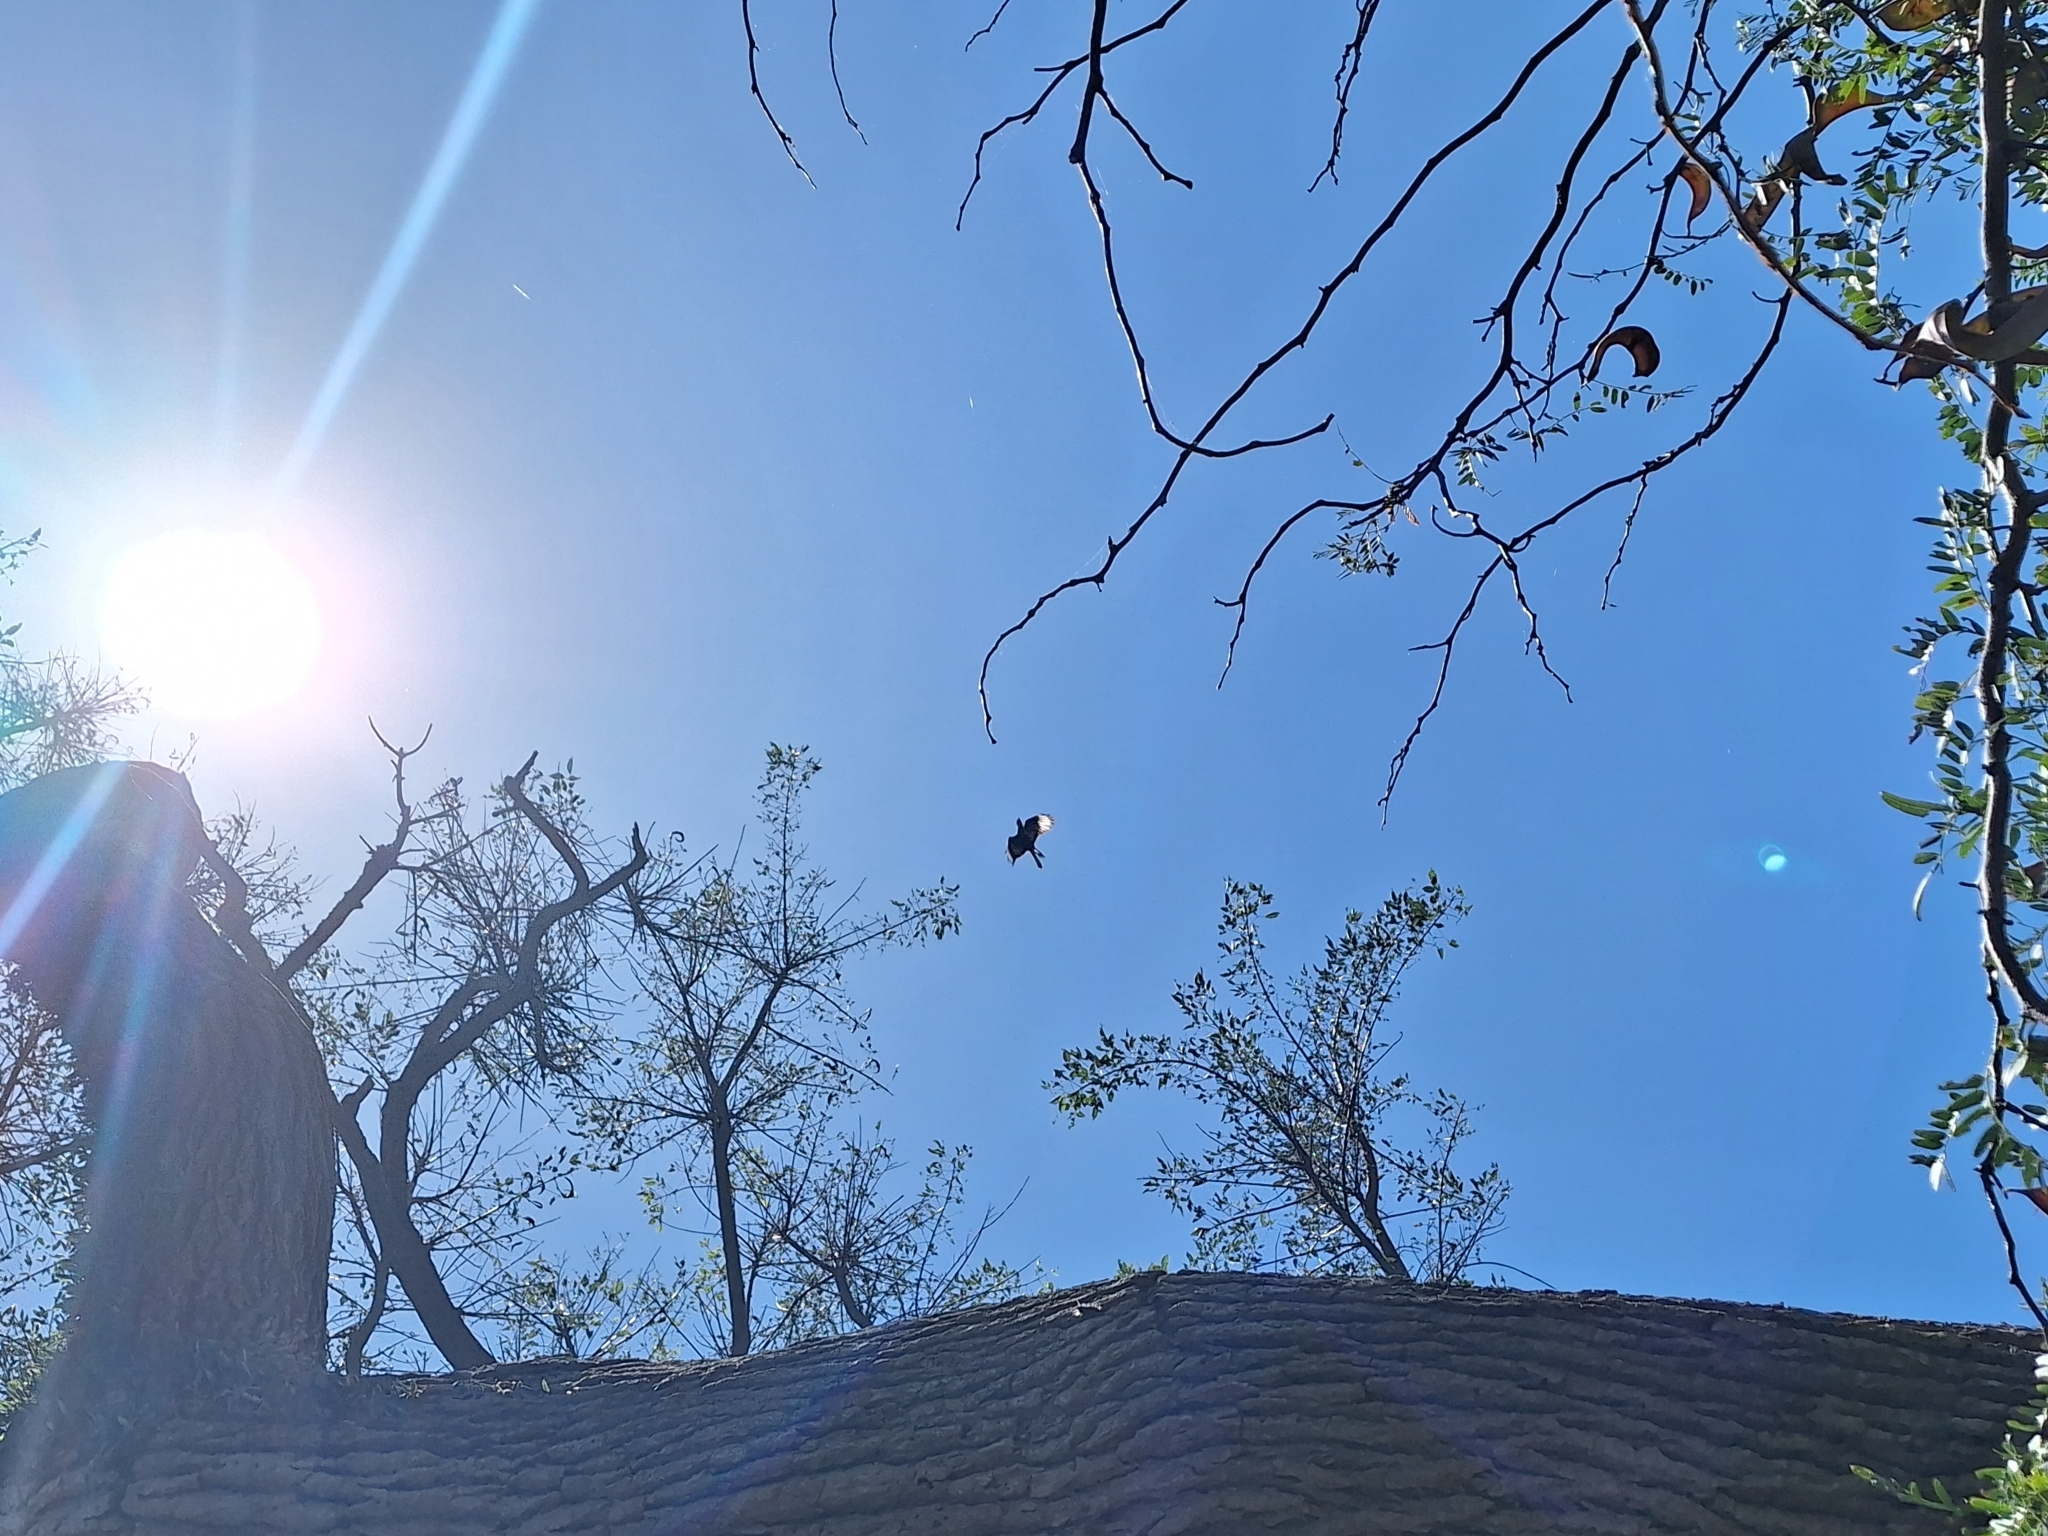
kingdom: Animalia
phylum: Chordata
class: Aves
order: Falconiformes
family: Falconidae
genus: Caracara
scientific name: Caracara plancus
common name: Southern caracara
